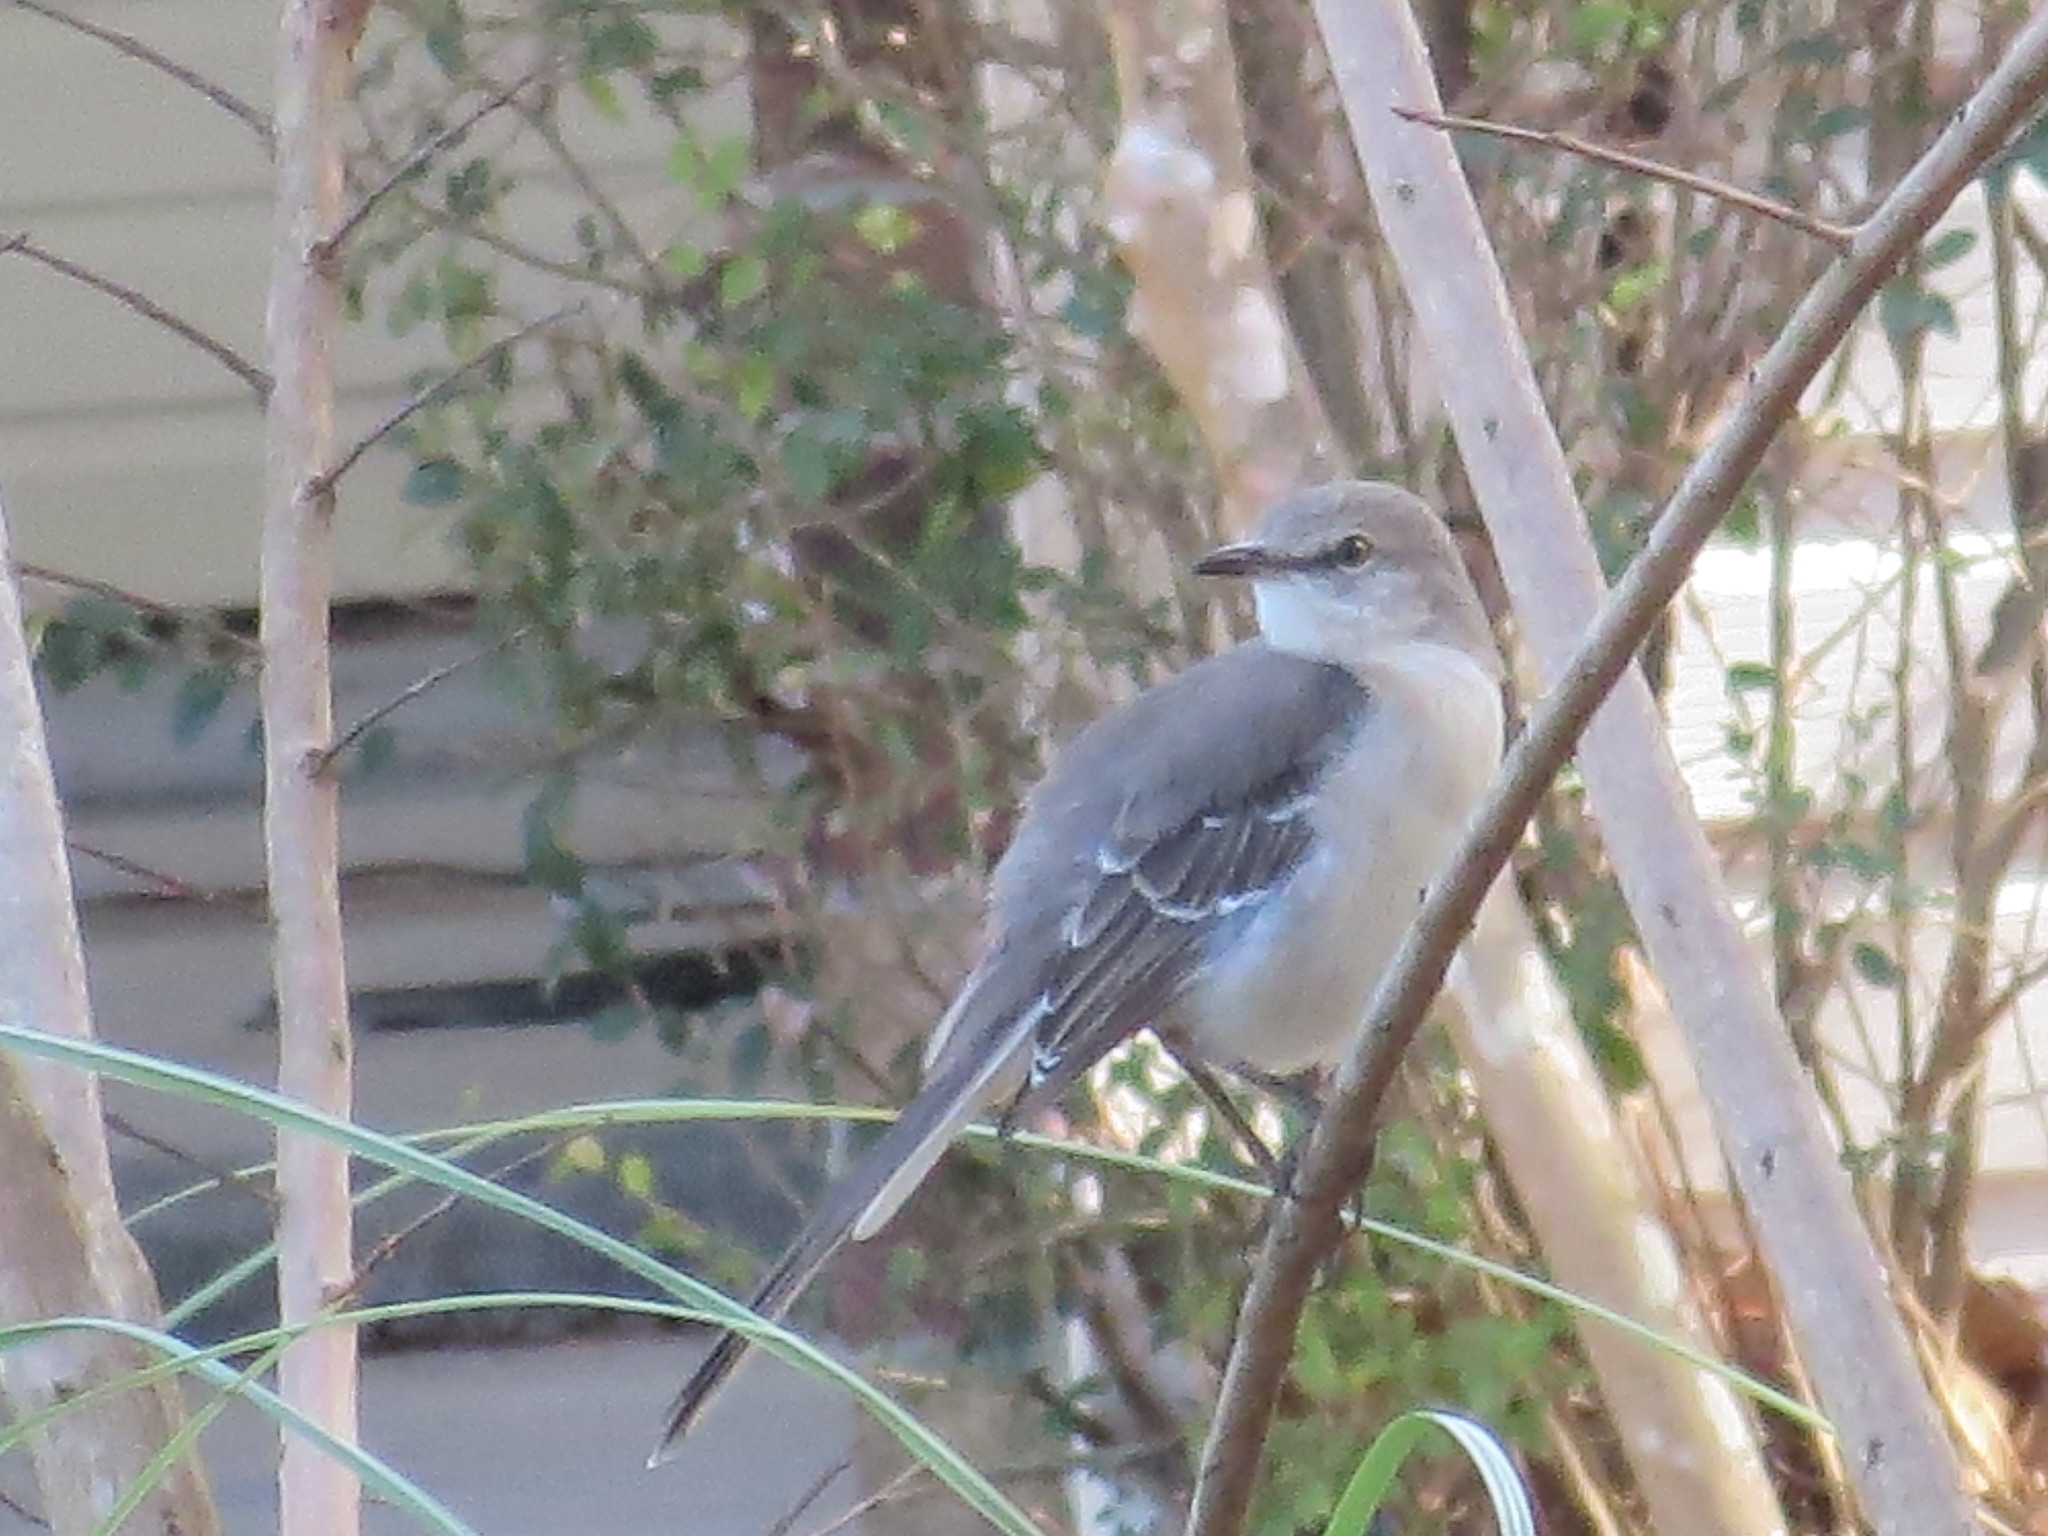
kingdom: Animalia
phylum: Chordata
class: Aves
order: Passeriformes
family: Mimidae
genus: Mimus
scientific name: Mimus polyglottos
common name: Northern mockingbird
